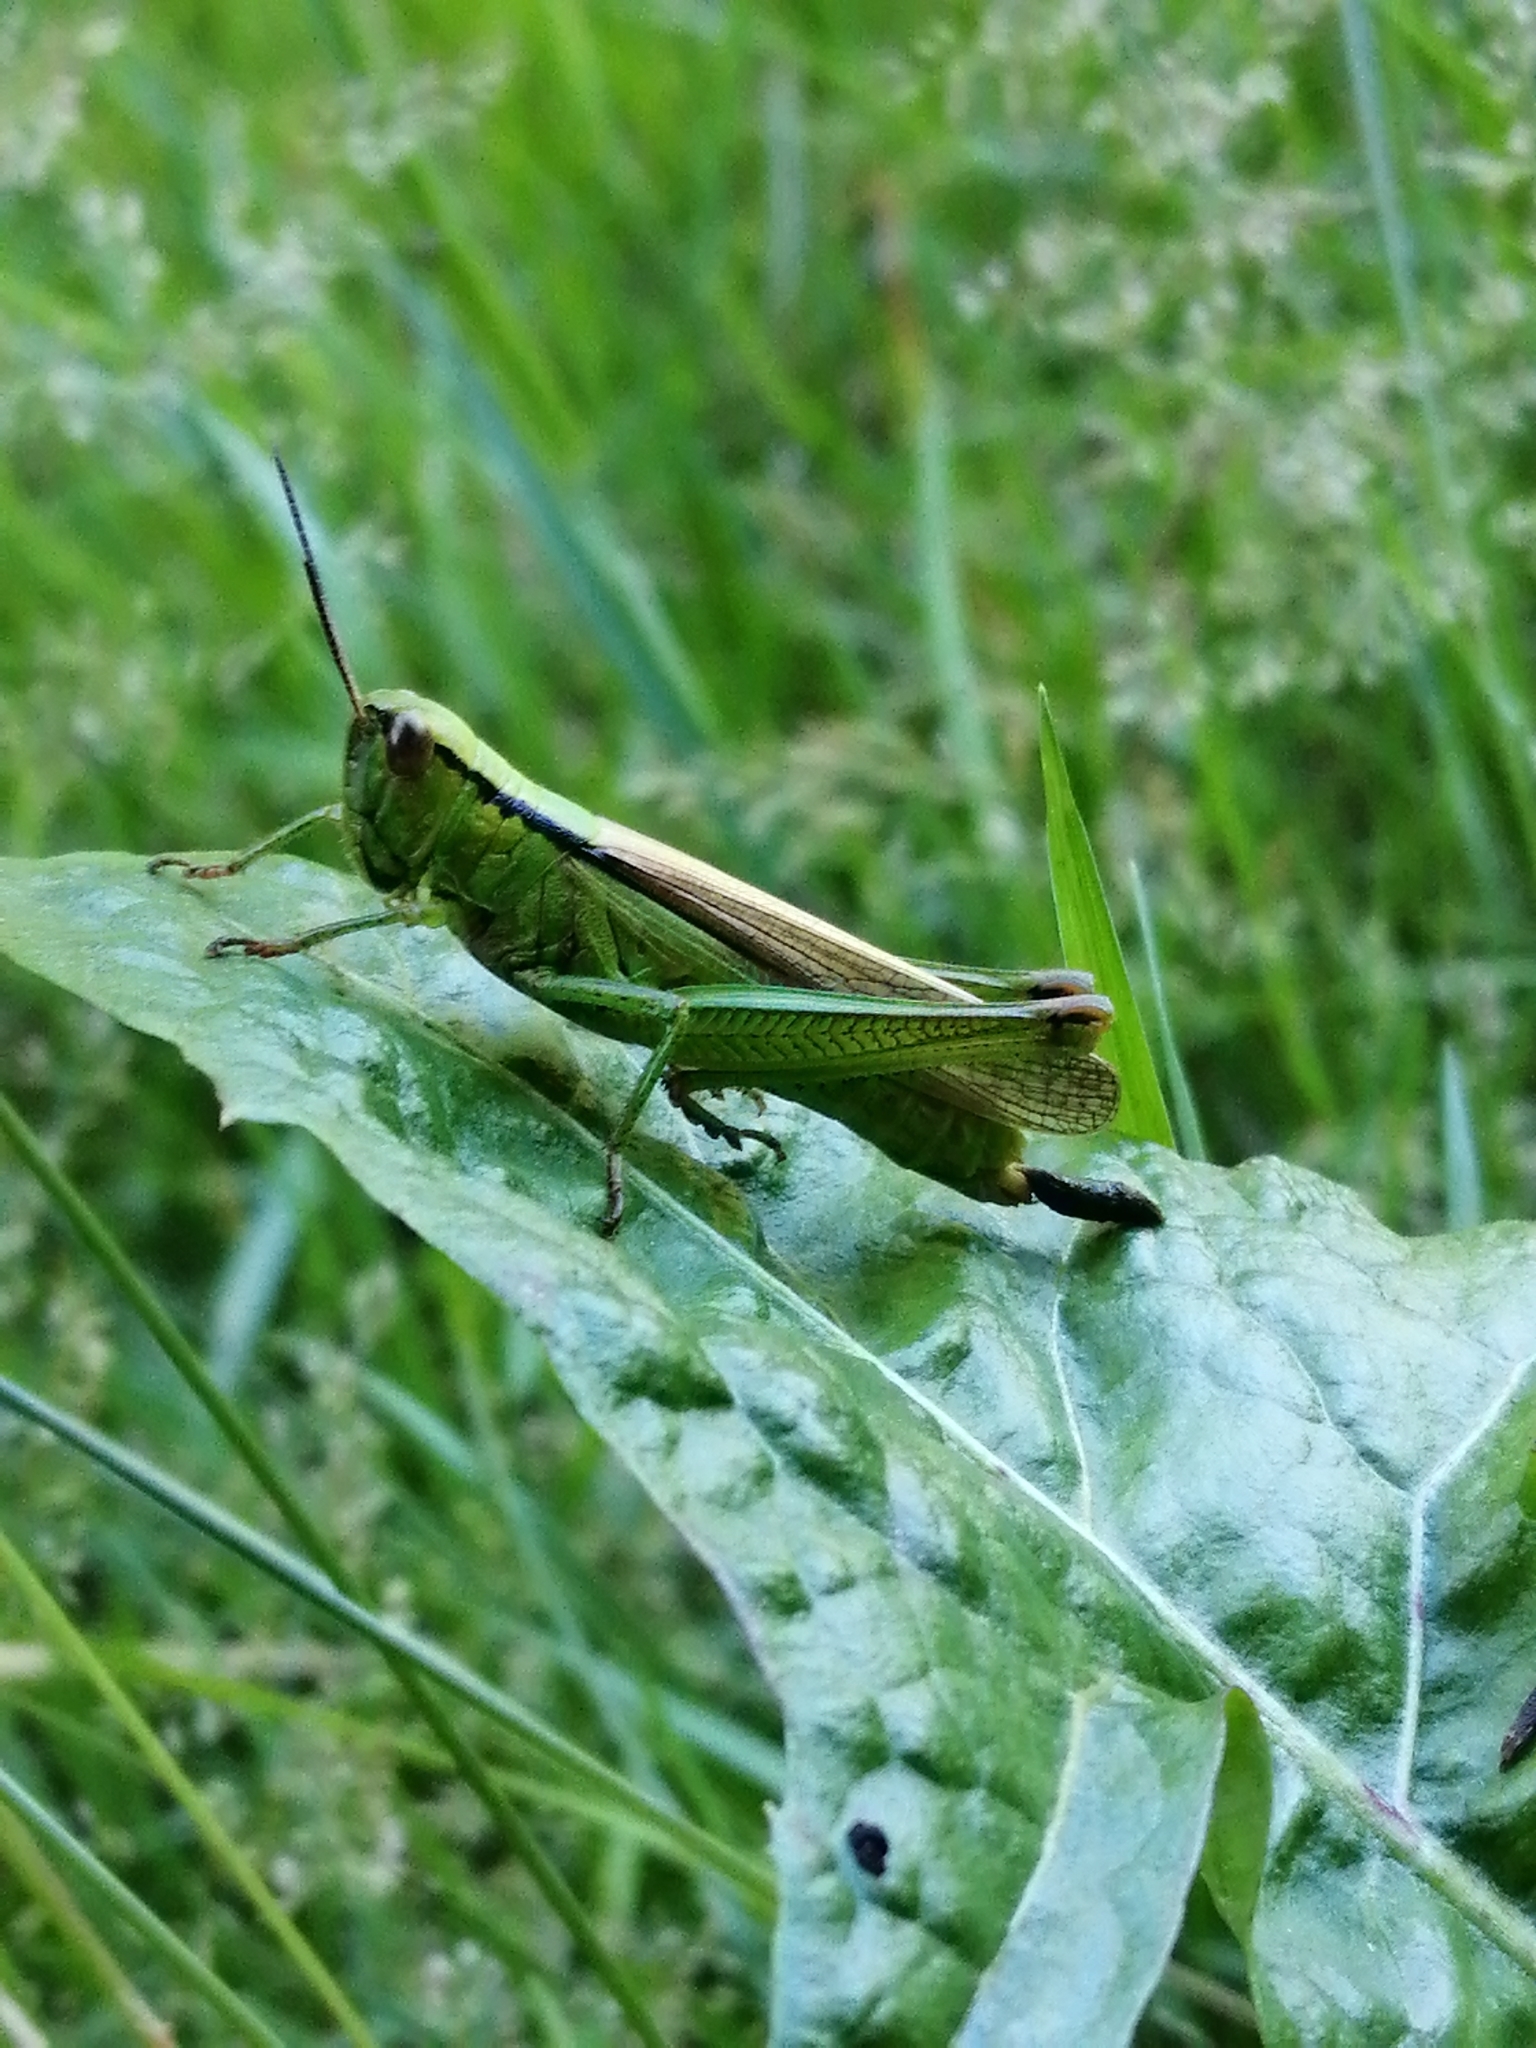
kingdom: Animalia
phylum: Arthropoda
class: Insecta
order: Orthoptera
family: Acrididae
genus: Mecostethus
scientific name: Mecostethus parapleurus
